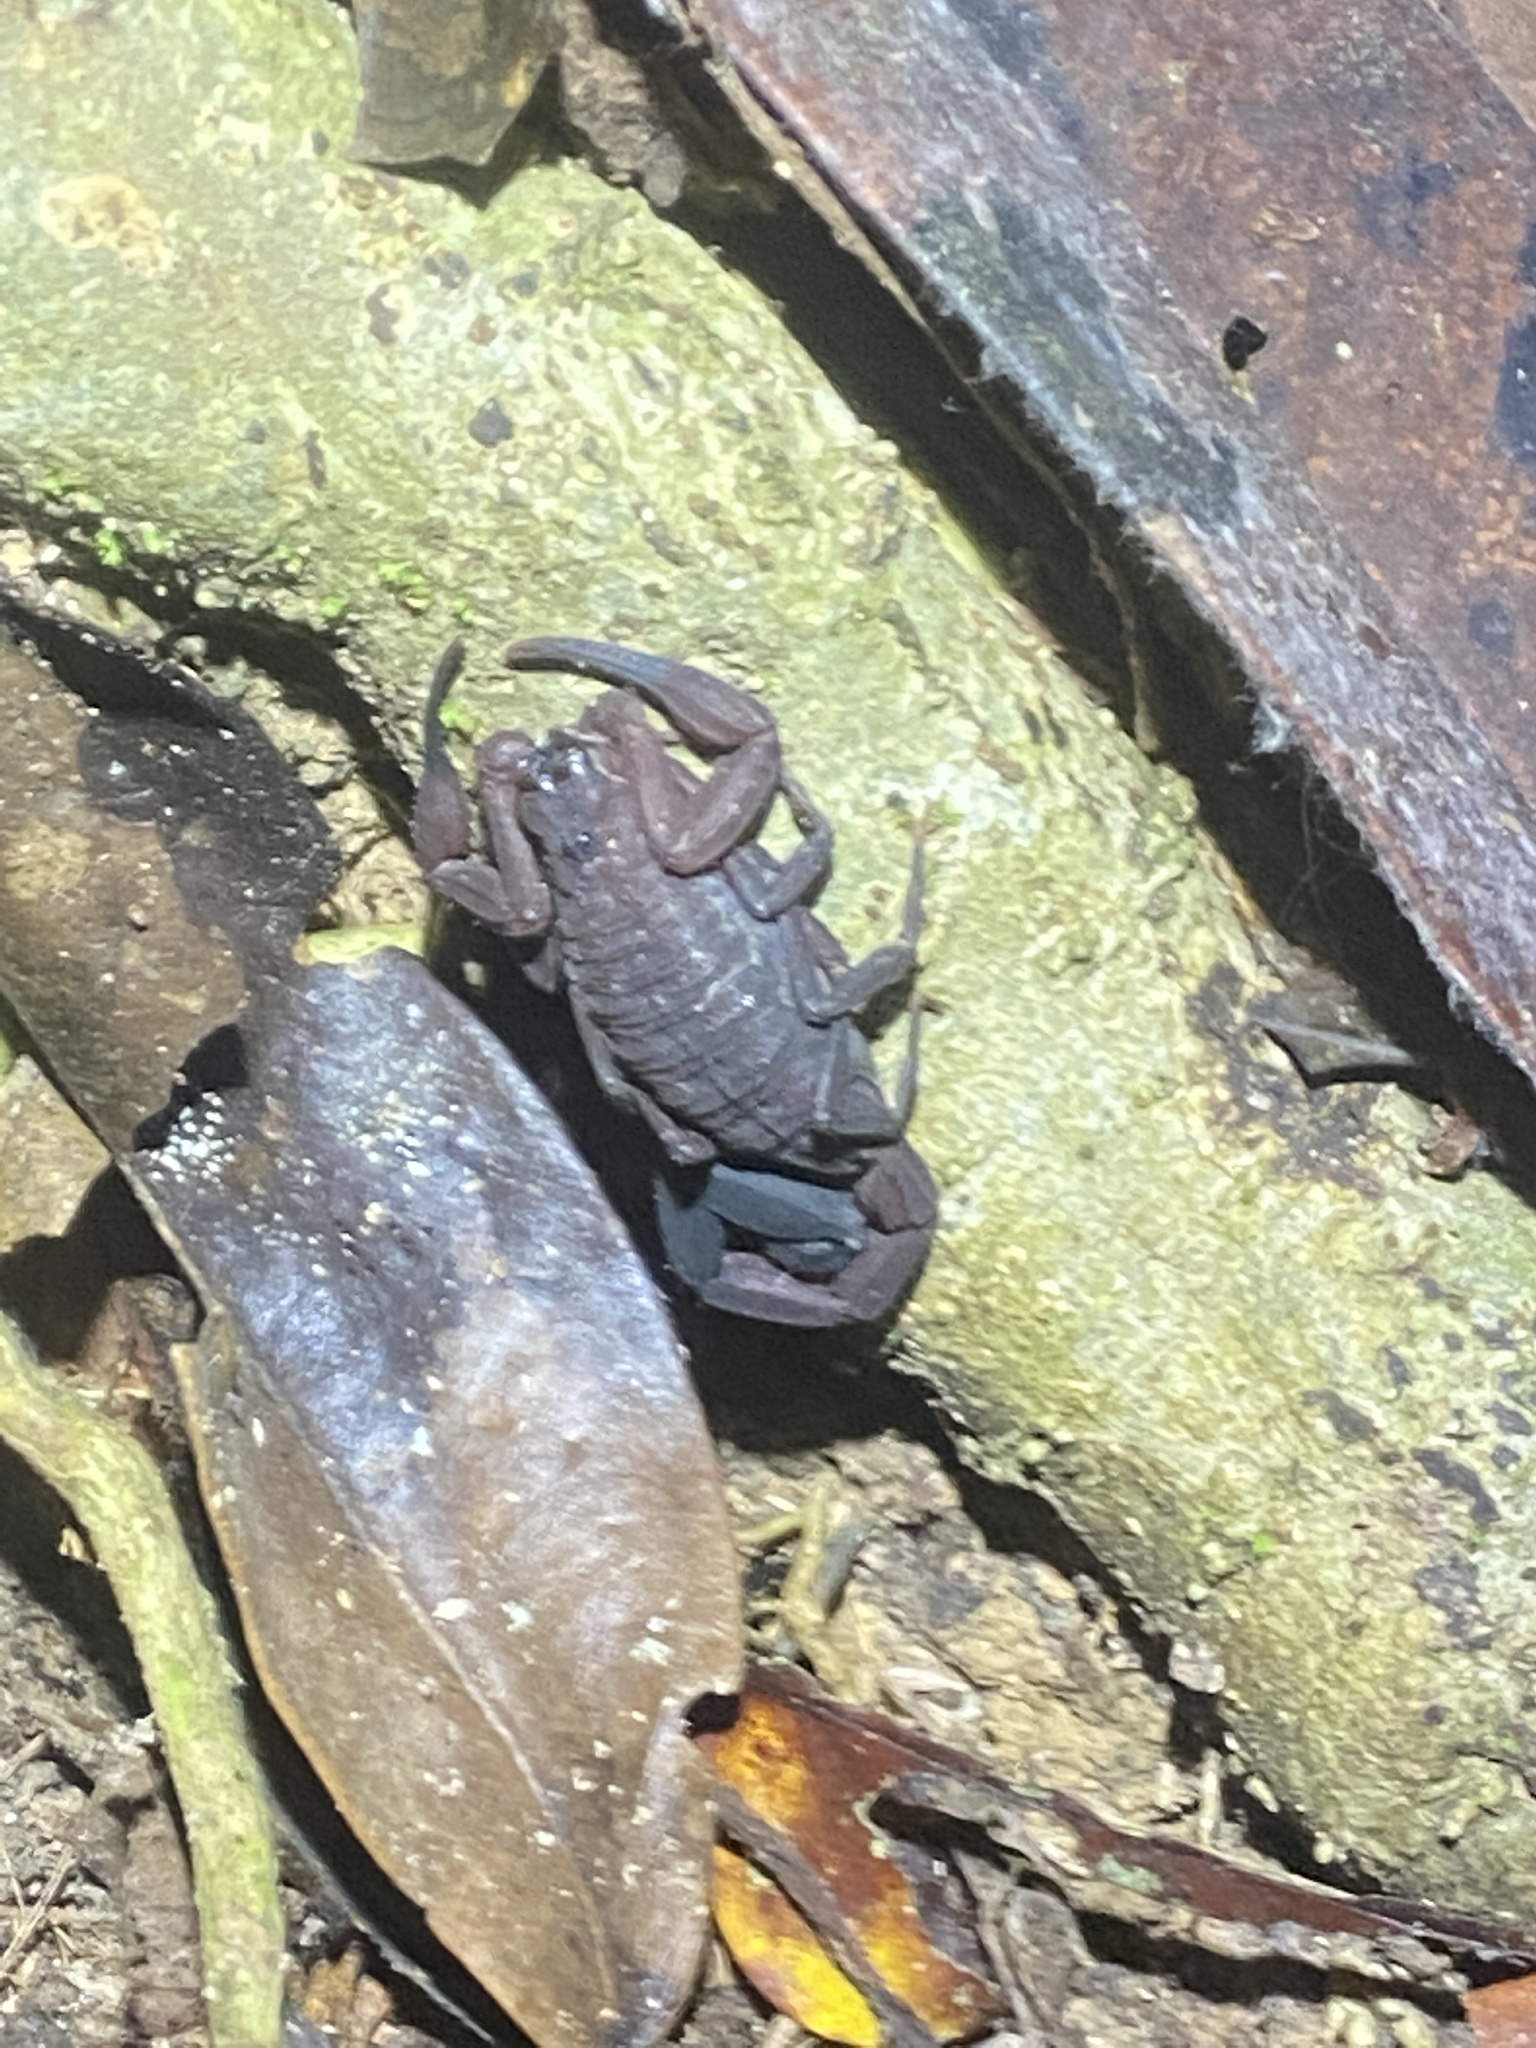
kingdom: Animalia
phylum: Arthropoda
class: Arachnida
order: Scorpiones
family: Buthidae
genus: Tityus
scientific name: Tityus trinitatis
